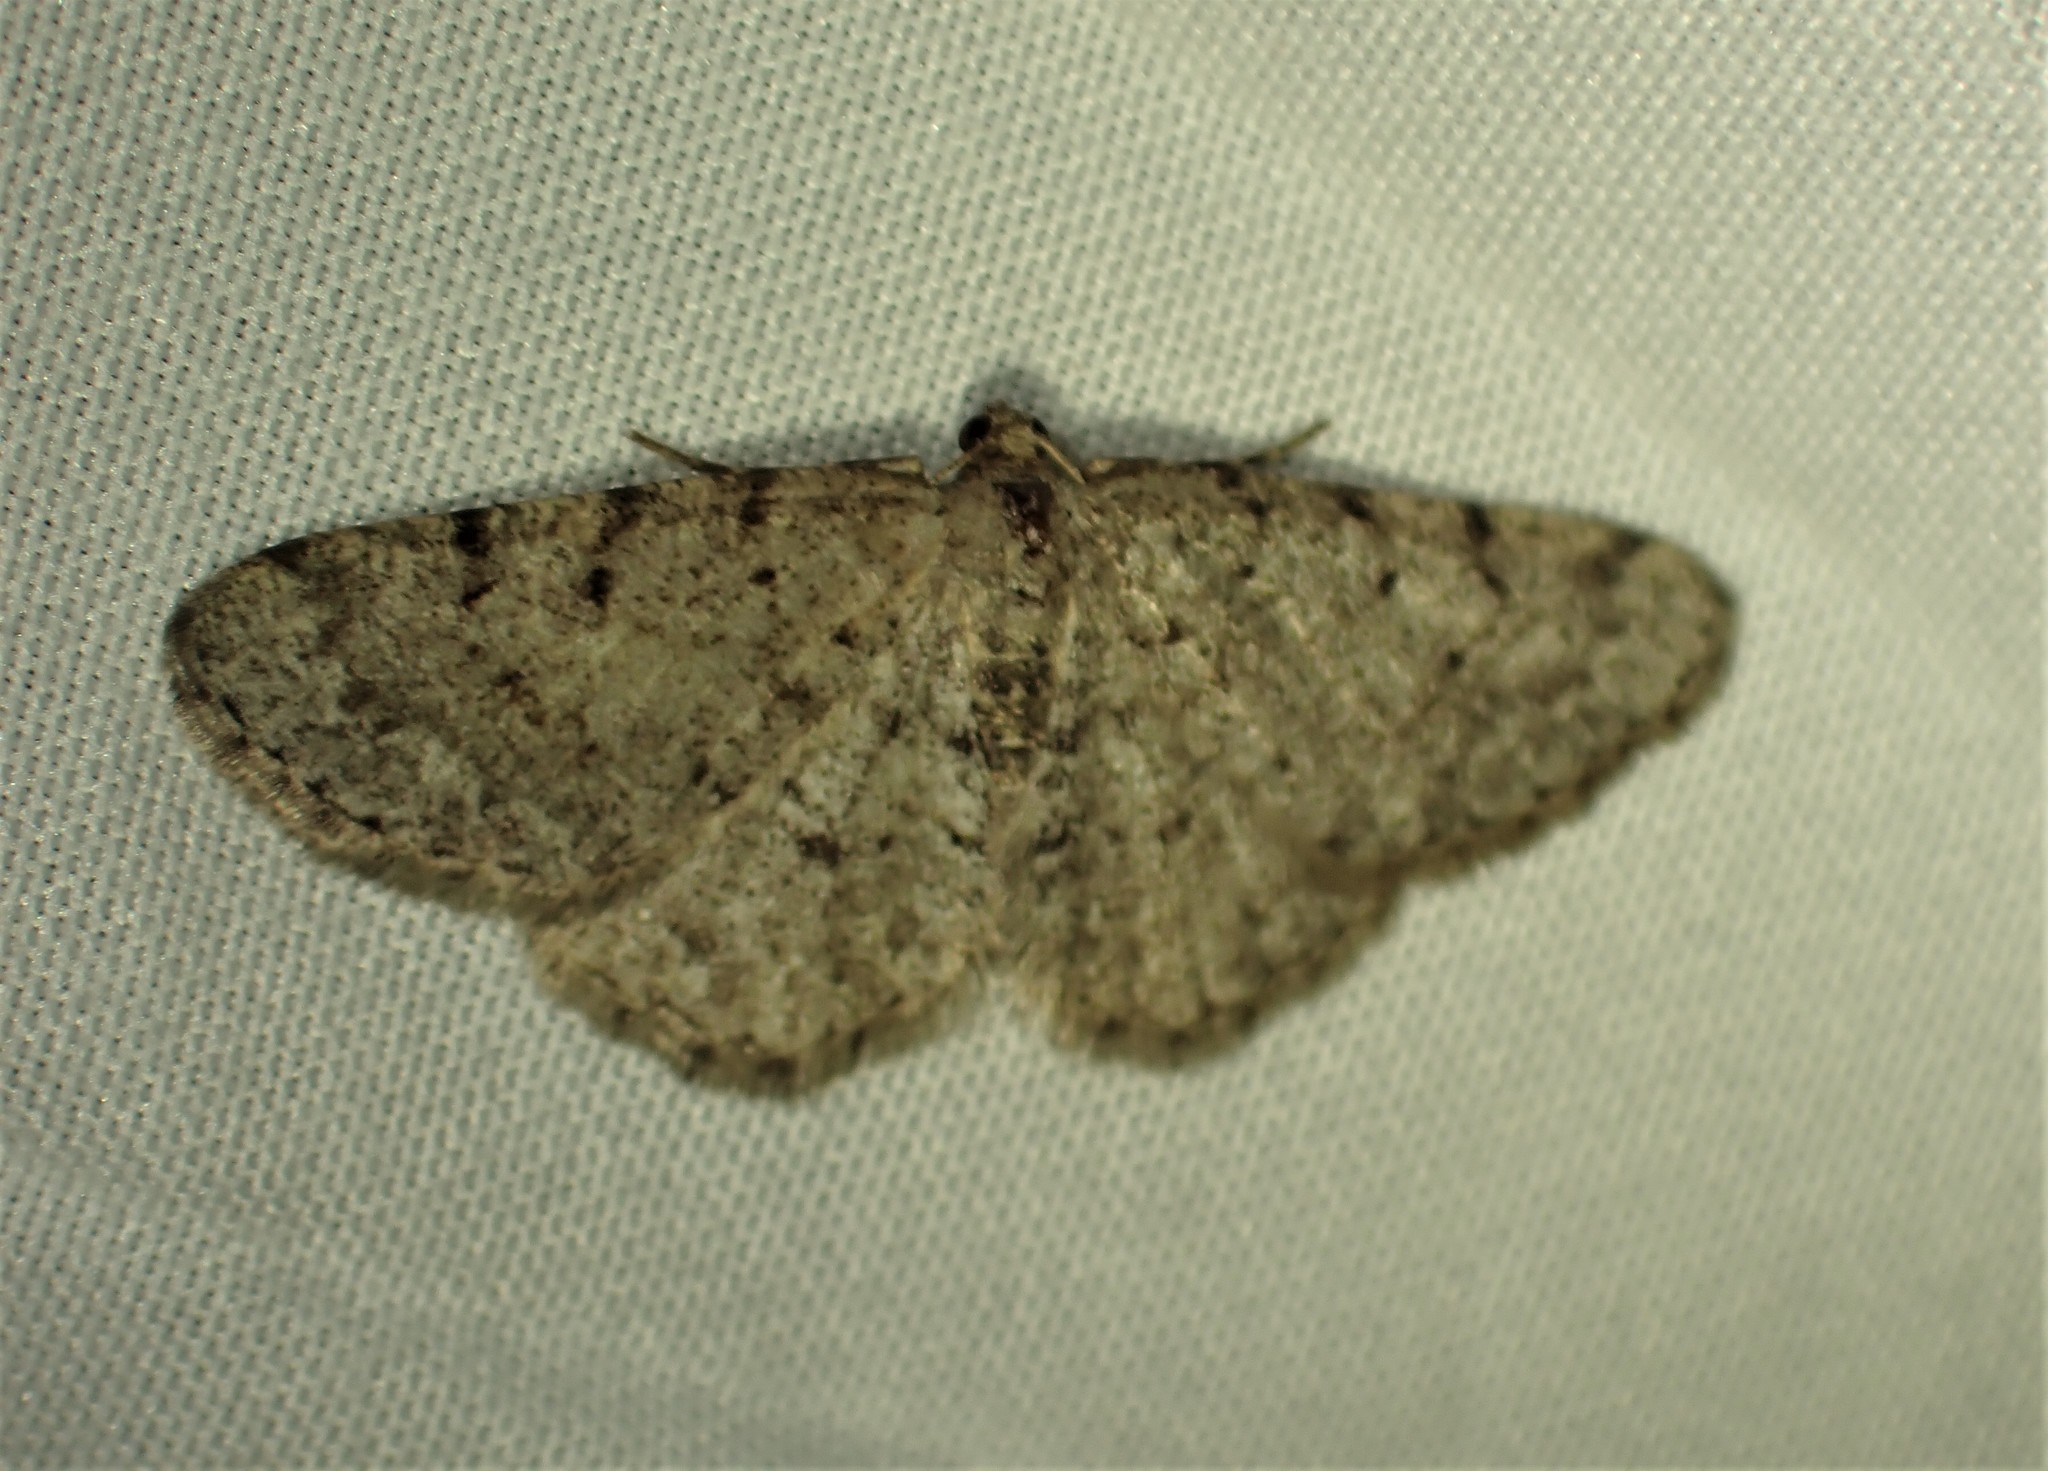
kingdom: Animalia
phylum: Arthropoda
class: Insecta
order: Lepidoptera
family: Geometridae
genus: Aethalura
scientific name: Aethalura intertexta
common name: Four-barred gray
